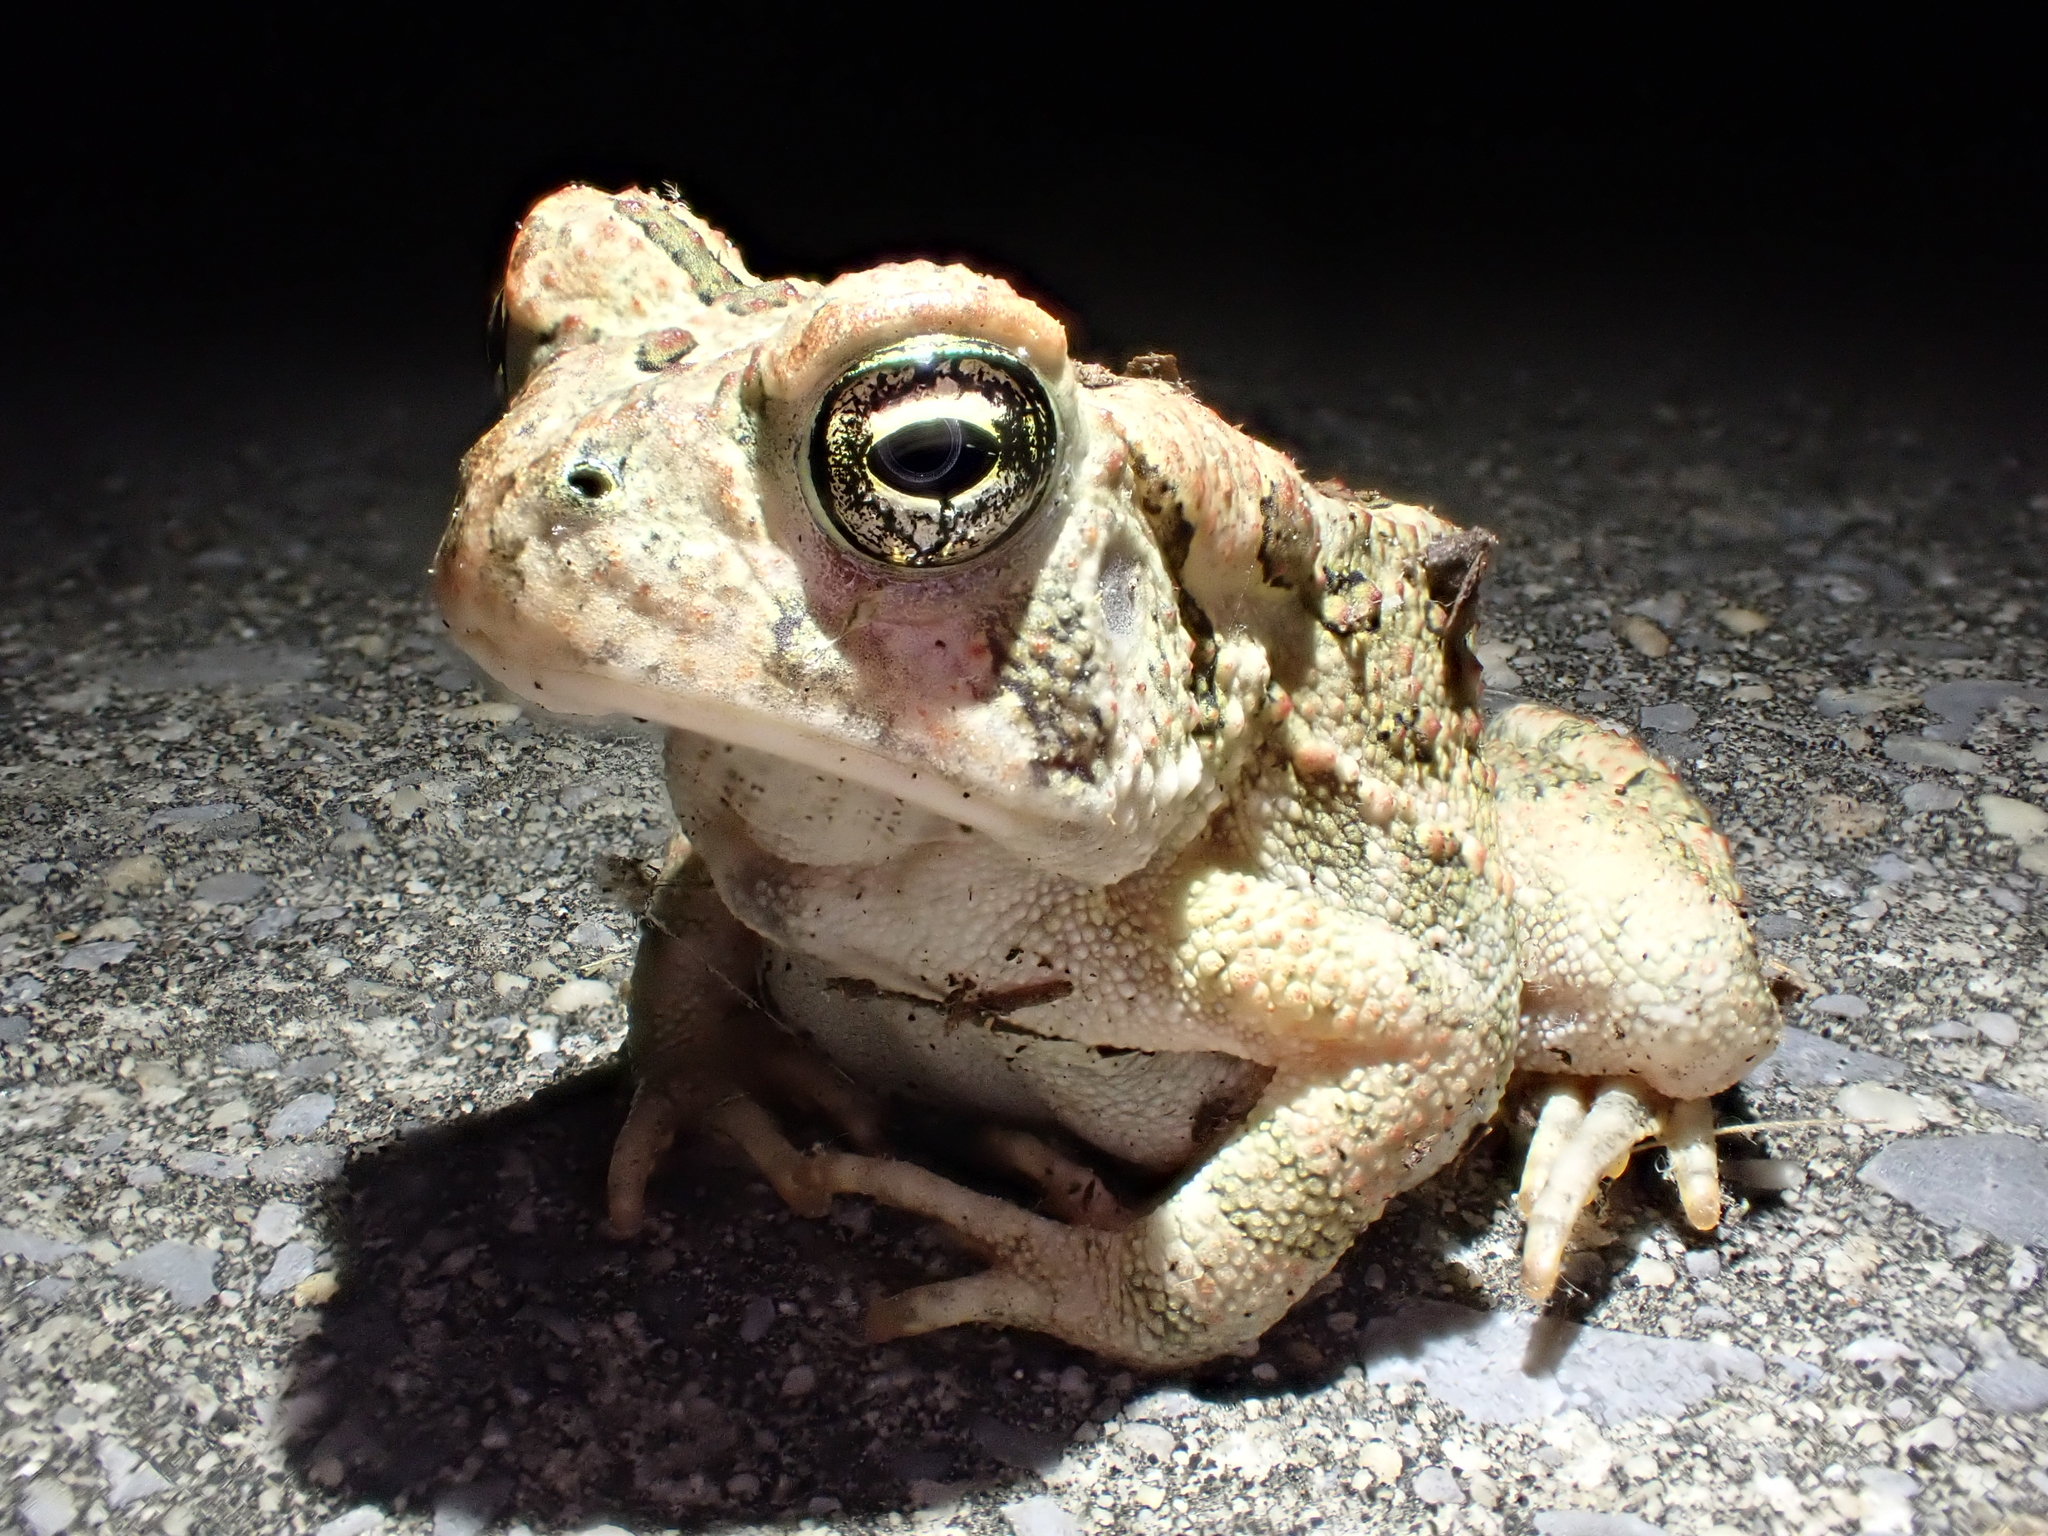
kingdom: Animalia
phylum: Chordata
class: Amphibia
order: Anura
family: Bufonidae
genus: Anaxyrus
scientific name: Anaxyrus fowleri
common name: Fowler's toad
